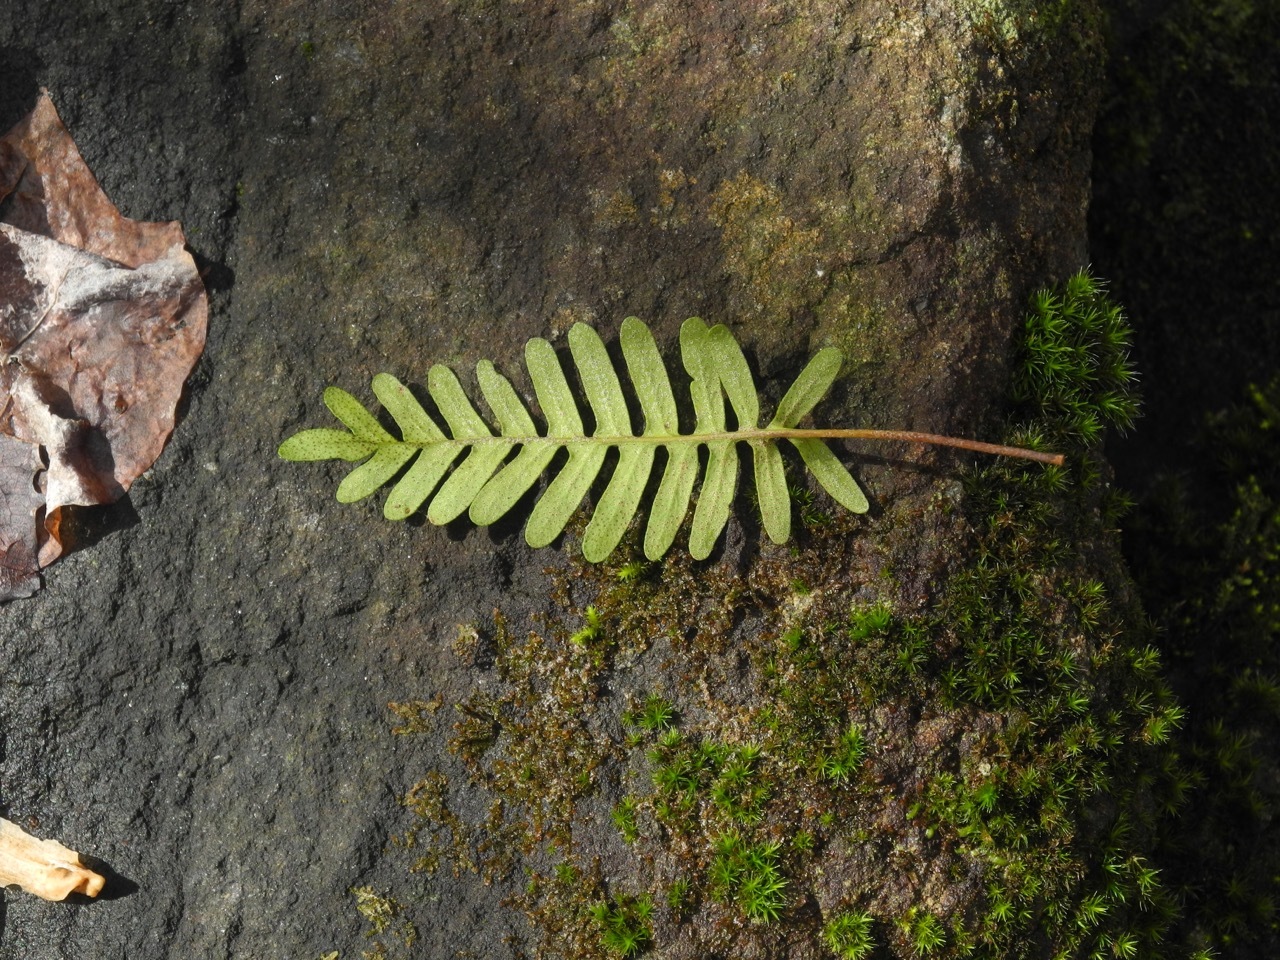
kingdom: Plantae
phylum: Tracheophyta
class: Polypodiopsida
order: Polypodiales
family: Polypodiaceae
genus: Pleopeltis
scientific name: Pleopeltis michauxiana
